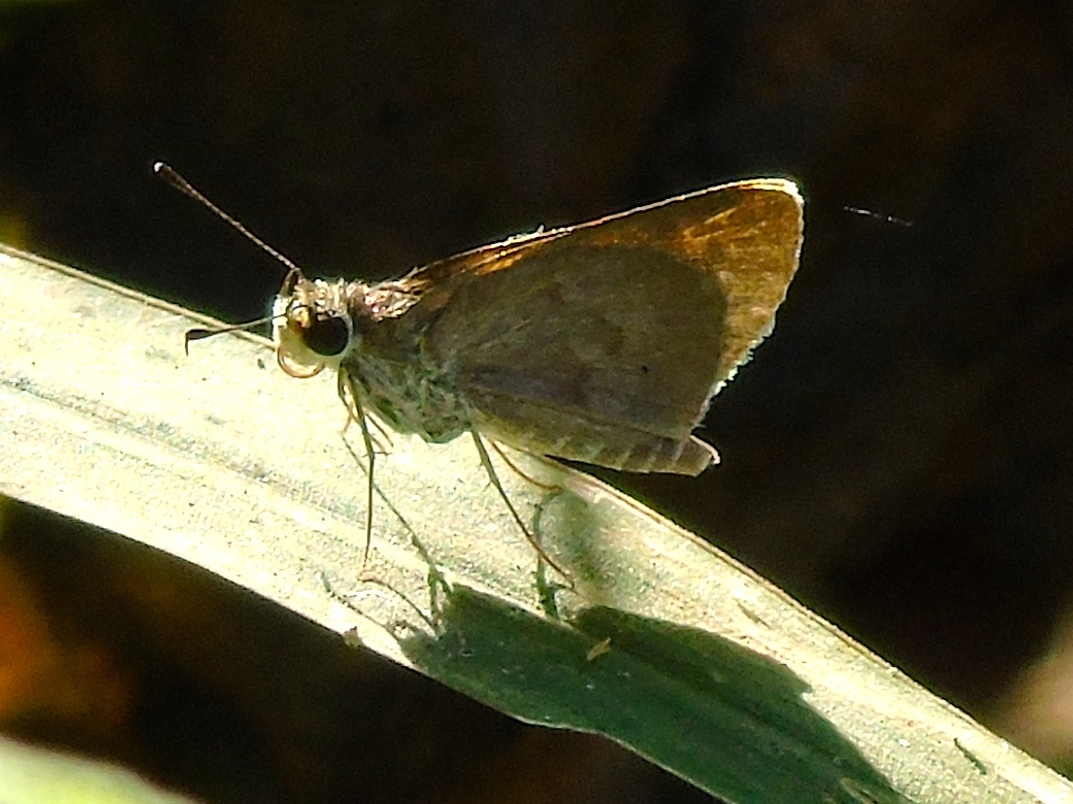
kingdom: Animalia
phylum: Arthropoda
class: Insecta
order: Lepidoptera
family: Hesperiidae
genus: Callimormus
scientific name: Callimormus saturnus
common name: Saturnus skipper
